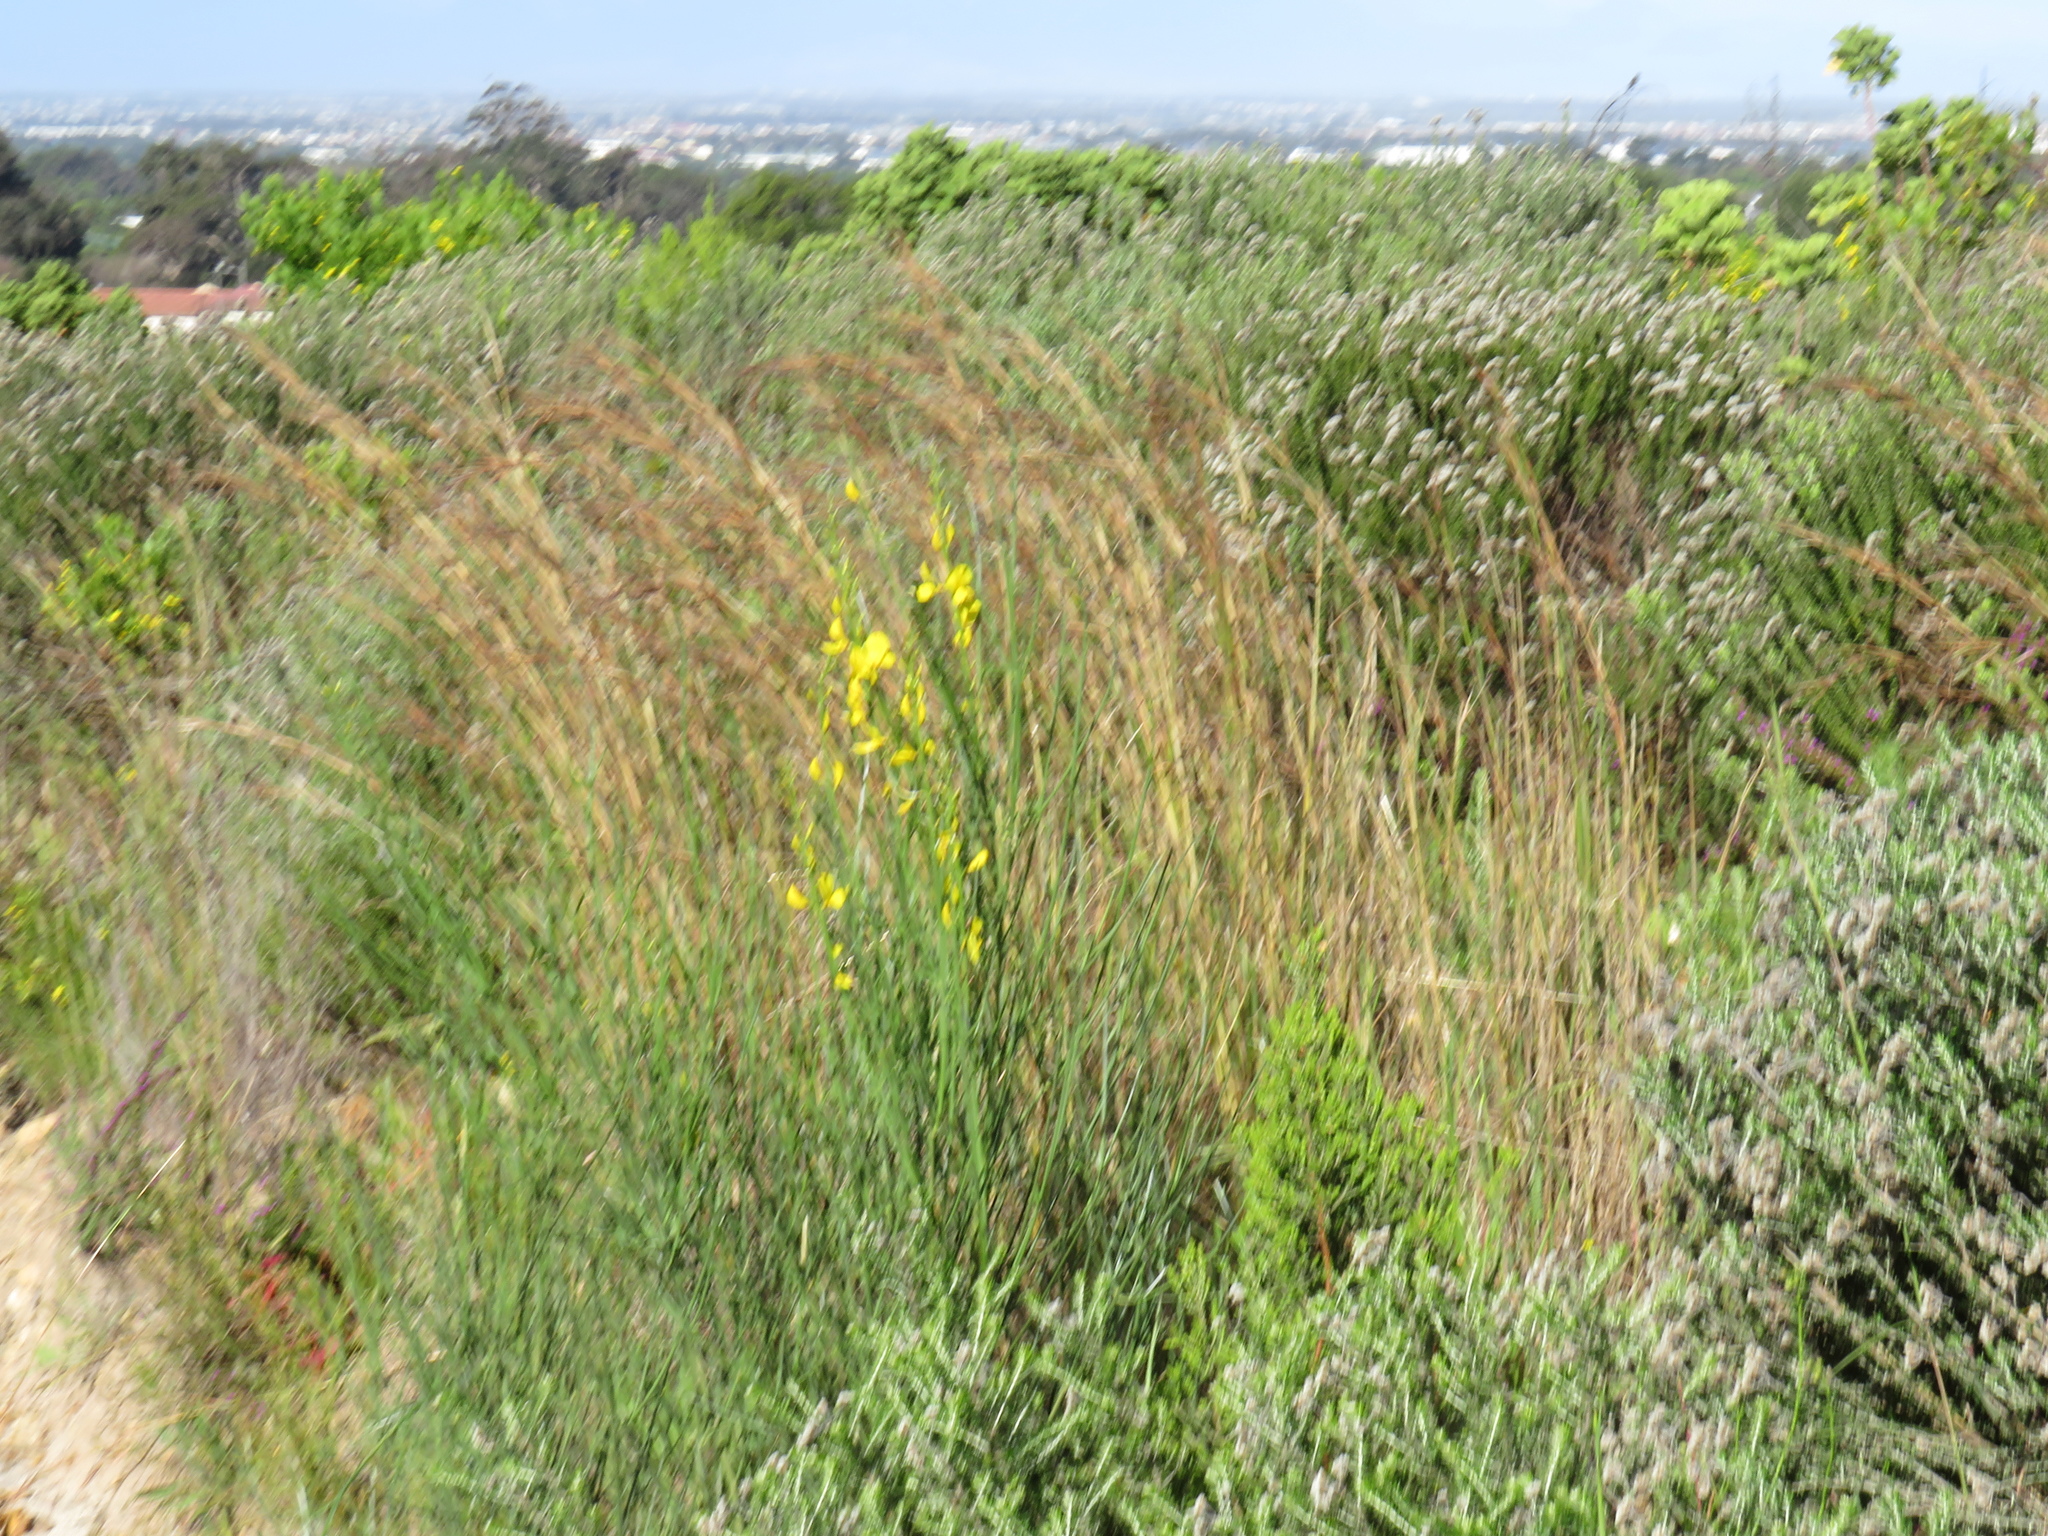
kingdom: Plantae
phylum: Tracheophyta
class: Magnoliopsida
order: Fabales
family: Fabaceae
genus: Spartium
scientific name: Spartium junceum
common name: Spanish broom
